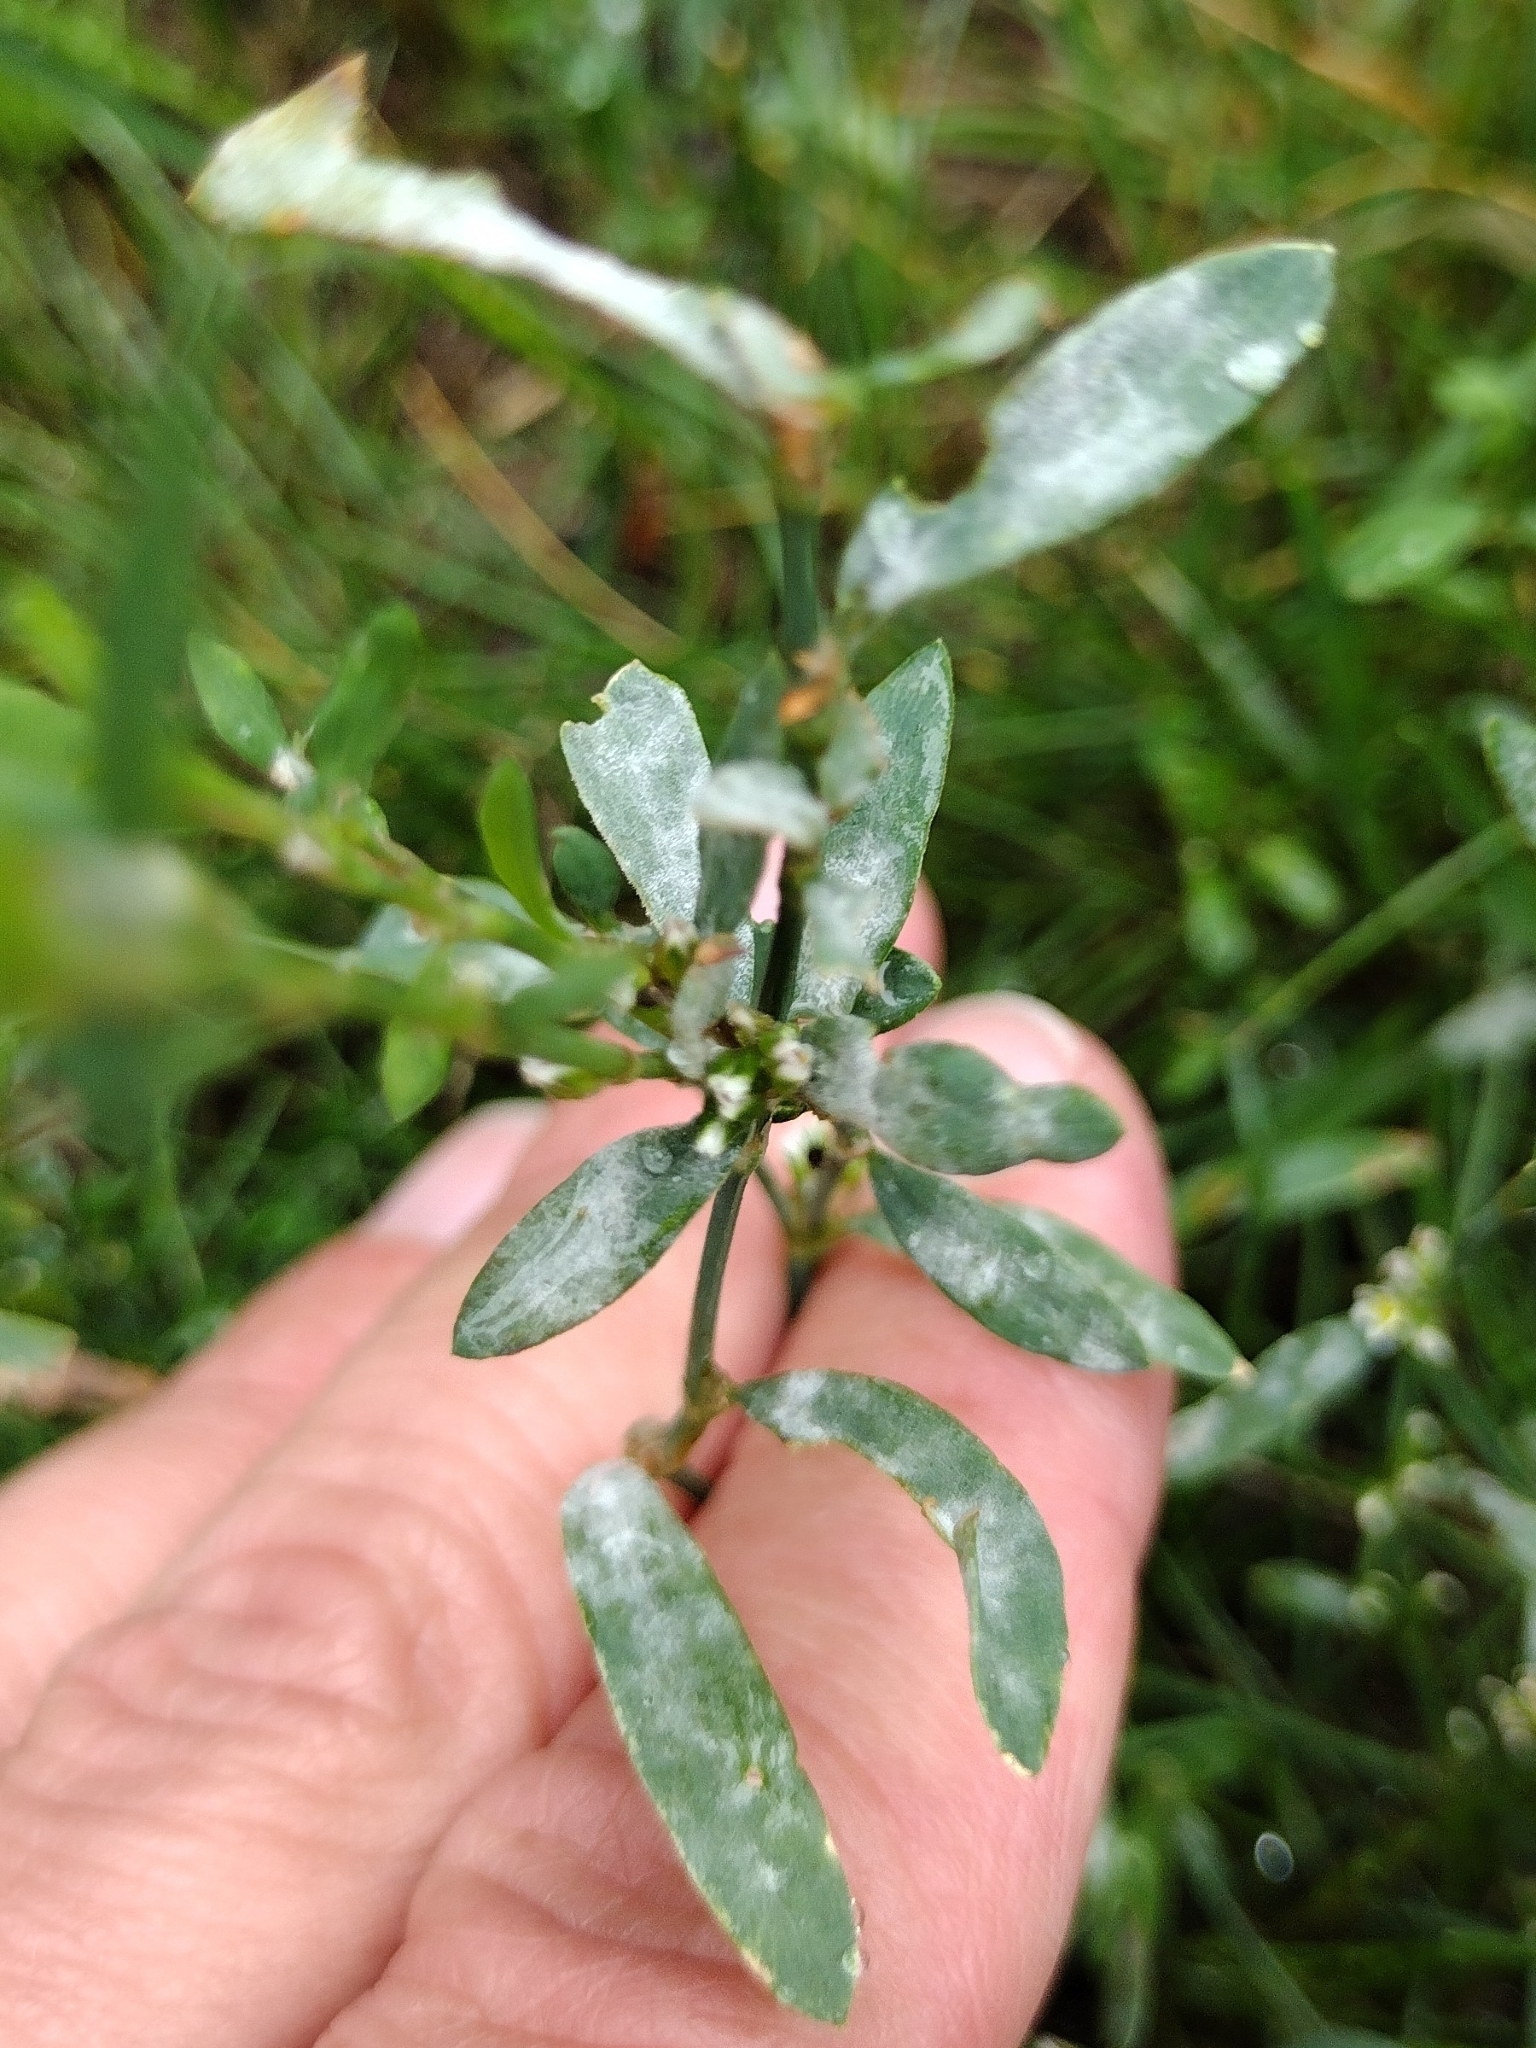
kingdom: Fungi
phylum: Ascomycota
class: Leotiomycetes
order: Helotiales
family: Erysiphaceae
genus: Erysiphe
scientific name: Erysiphe polygoni
